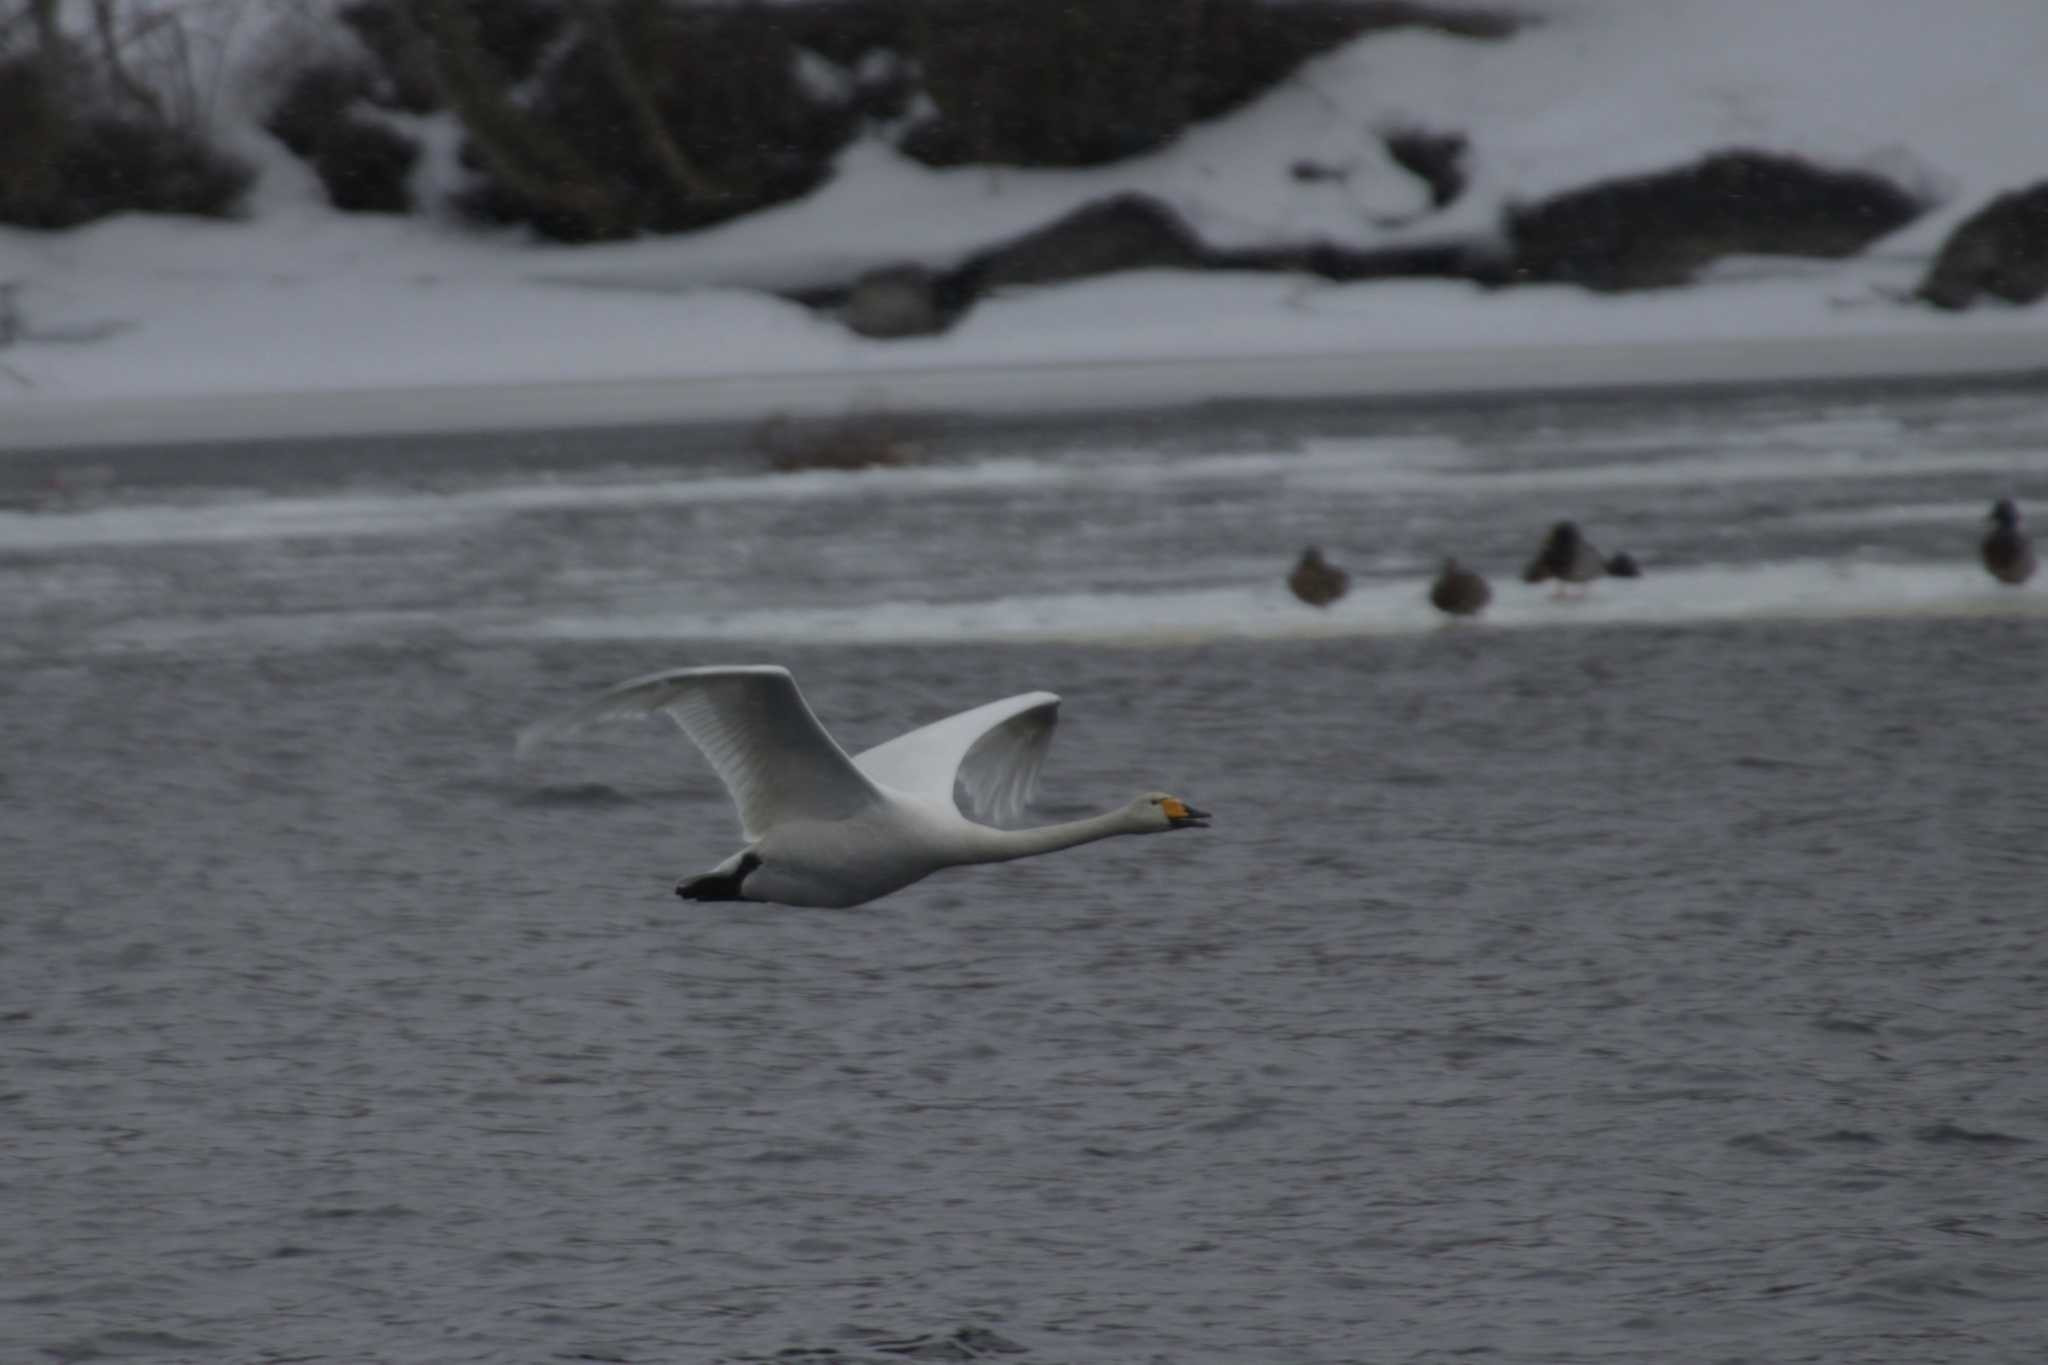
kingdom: Animalia
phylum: Chordata
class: Aves
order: Anseriformes
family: Anatidae
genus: Cygnus
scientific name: Cygnus cygnus
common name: Whooper swan
